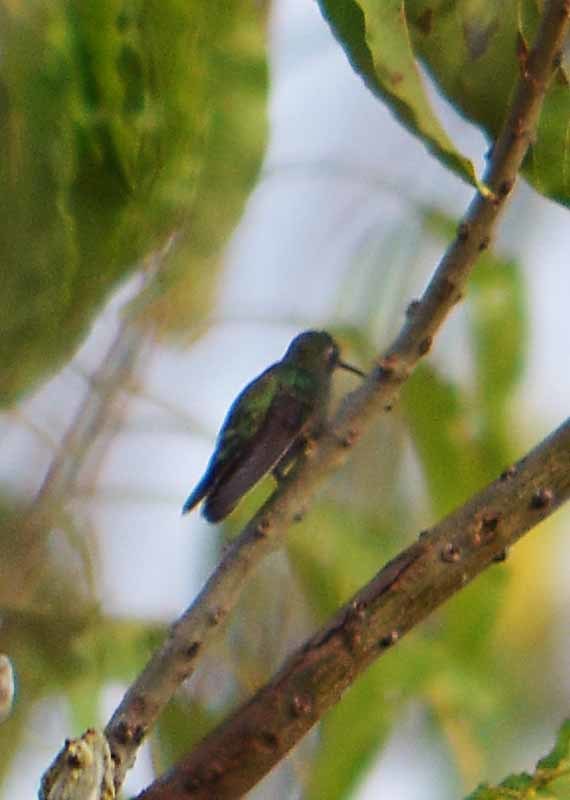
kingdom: Animalia
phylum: Chordata
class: Aves
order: Apodiformes
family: Trochilidae
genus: Cynanthus
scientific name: Cynanthus latirostris
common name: Broad-billed hummingbird
